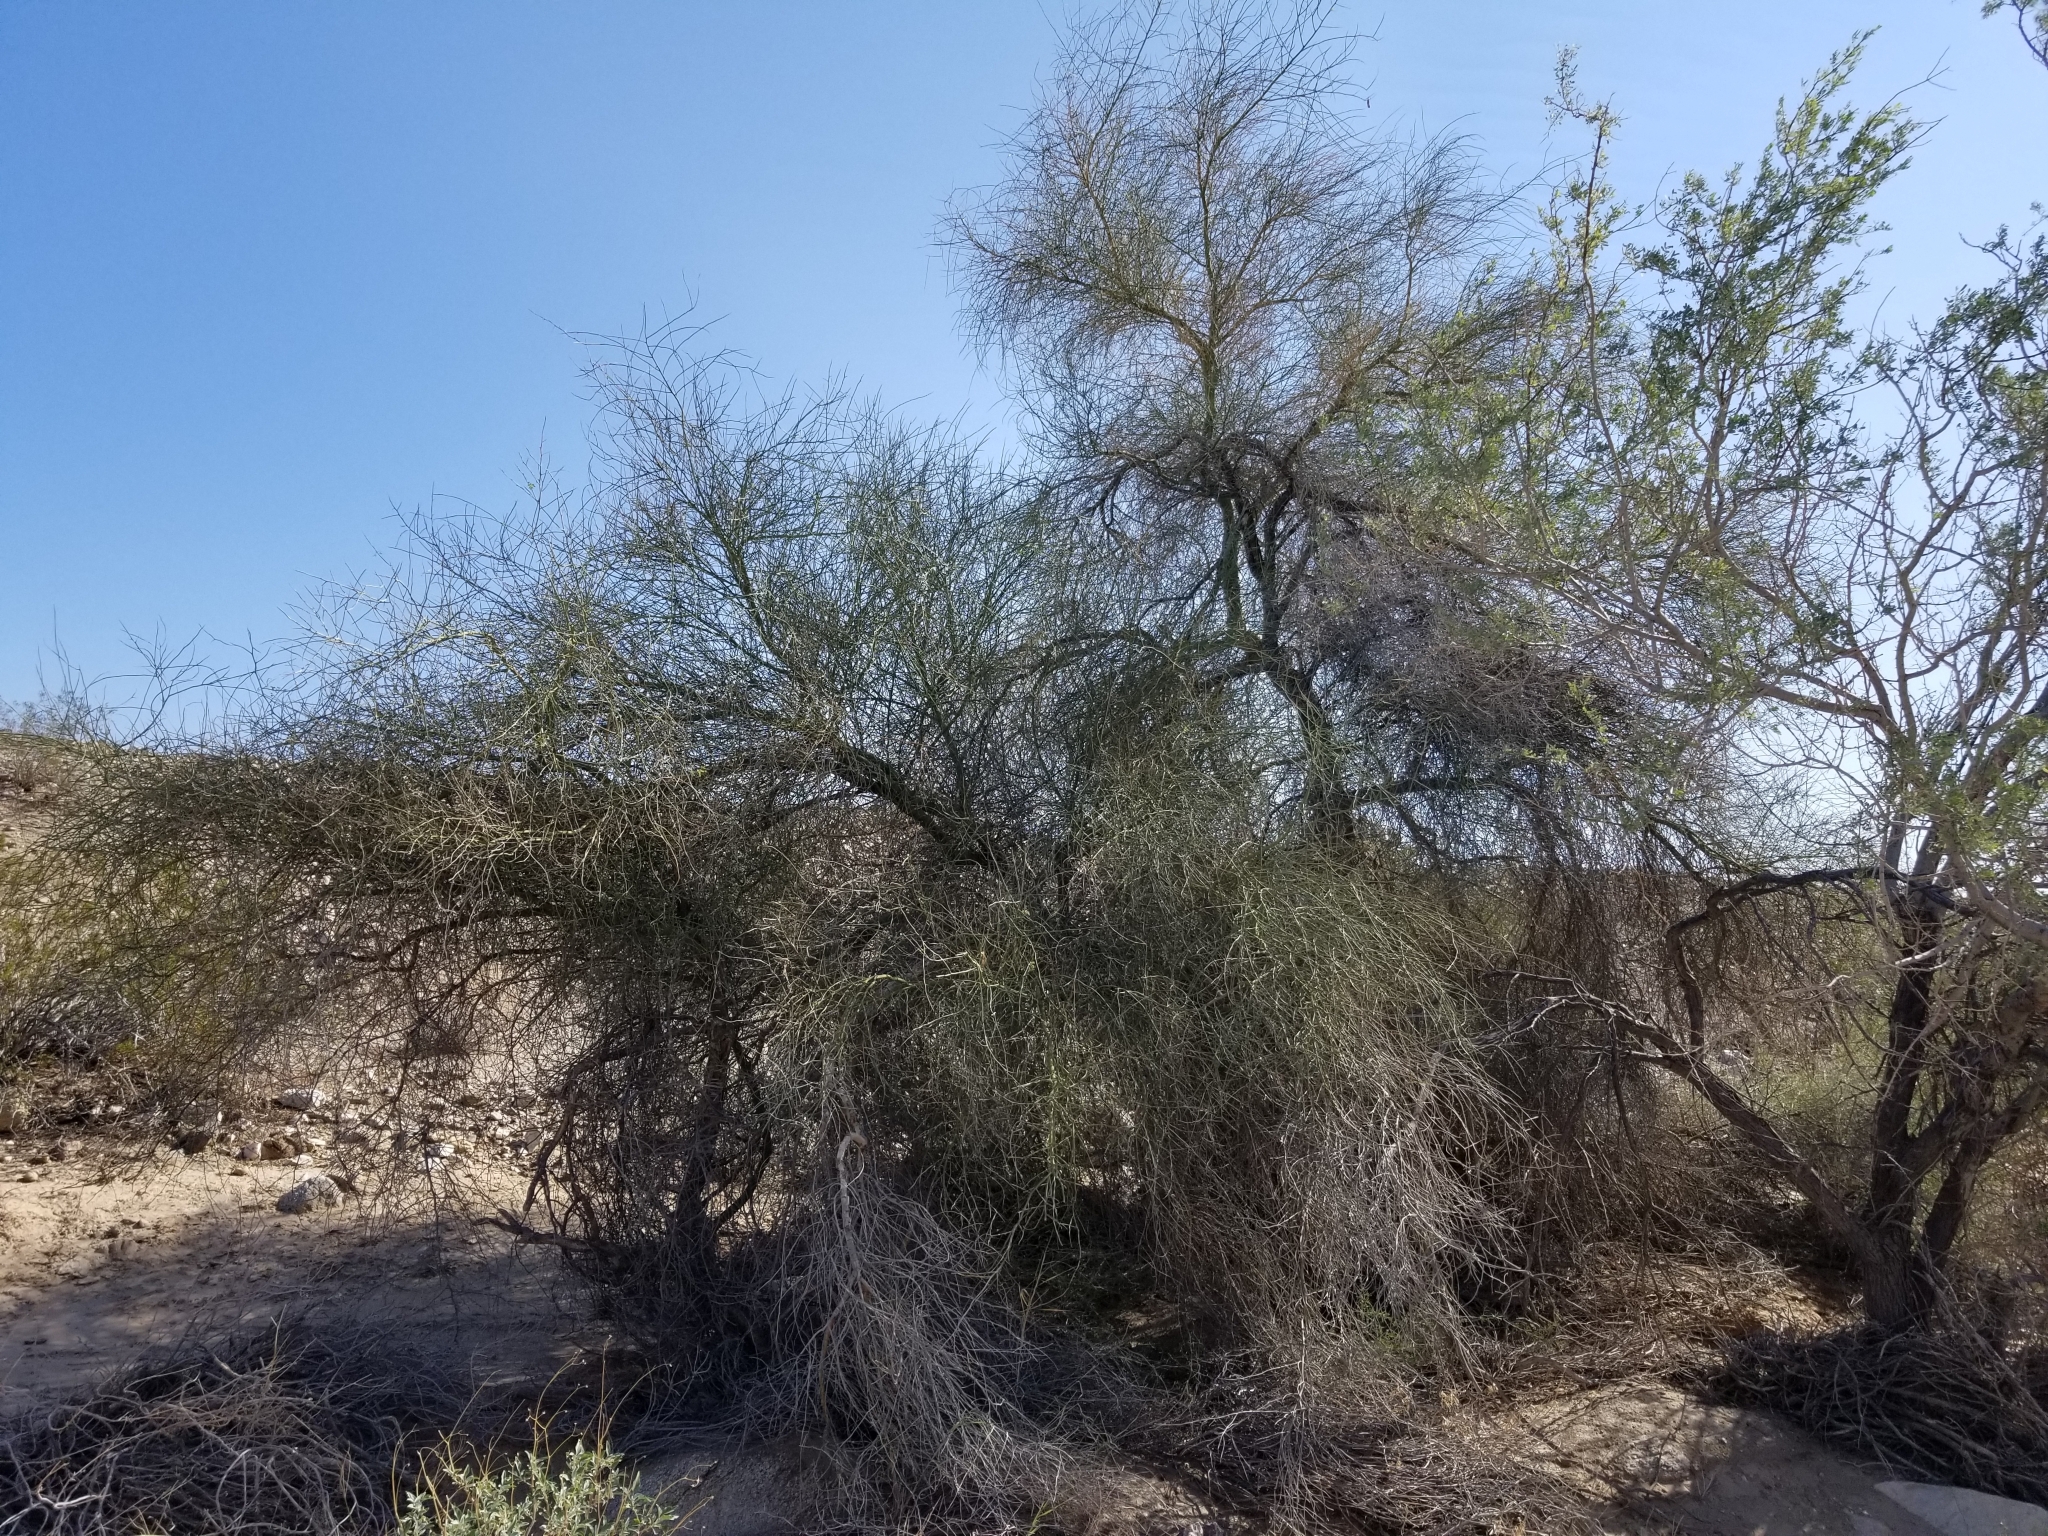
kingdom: Plantae
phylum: Tracheophyta
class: Magnoliopsida
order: Fabales
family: Fabaceae
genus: Parkinsonia
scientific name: Parkinsonia florida
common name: Blue paloverde
